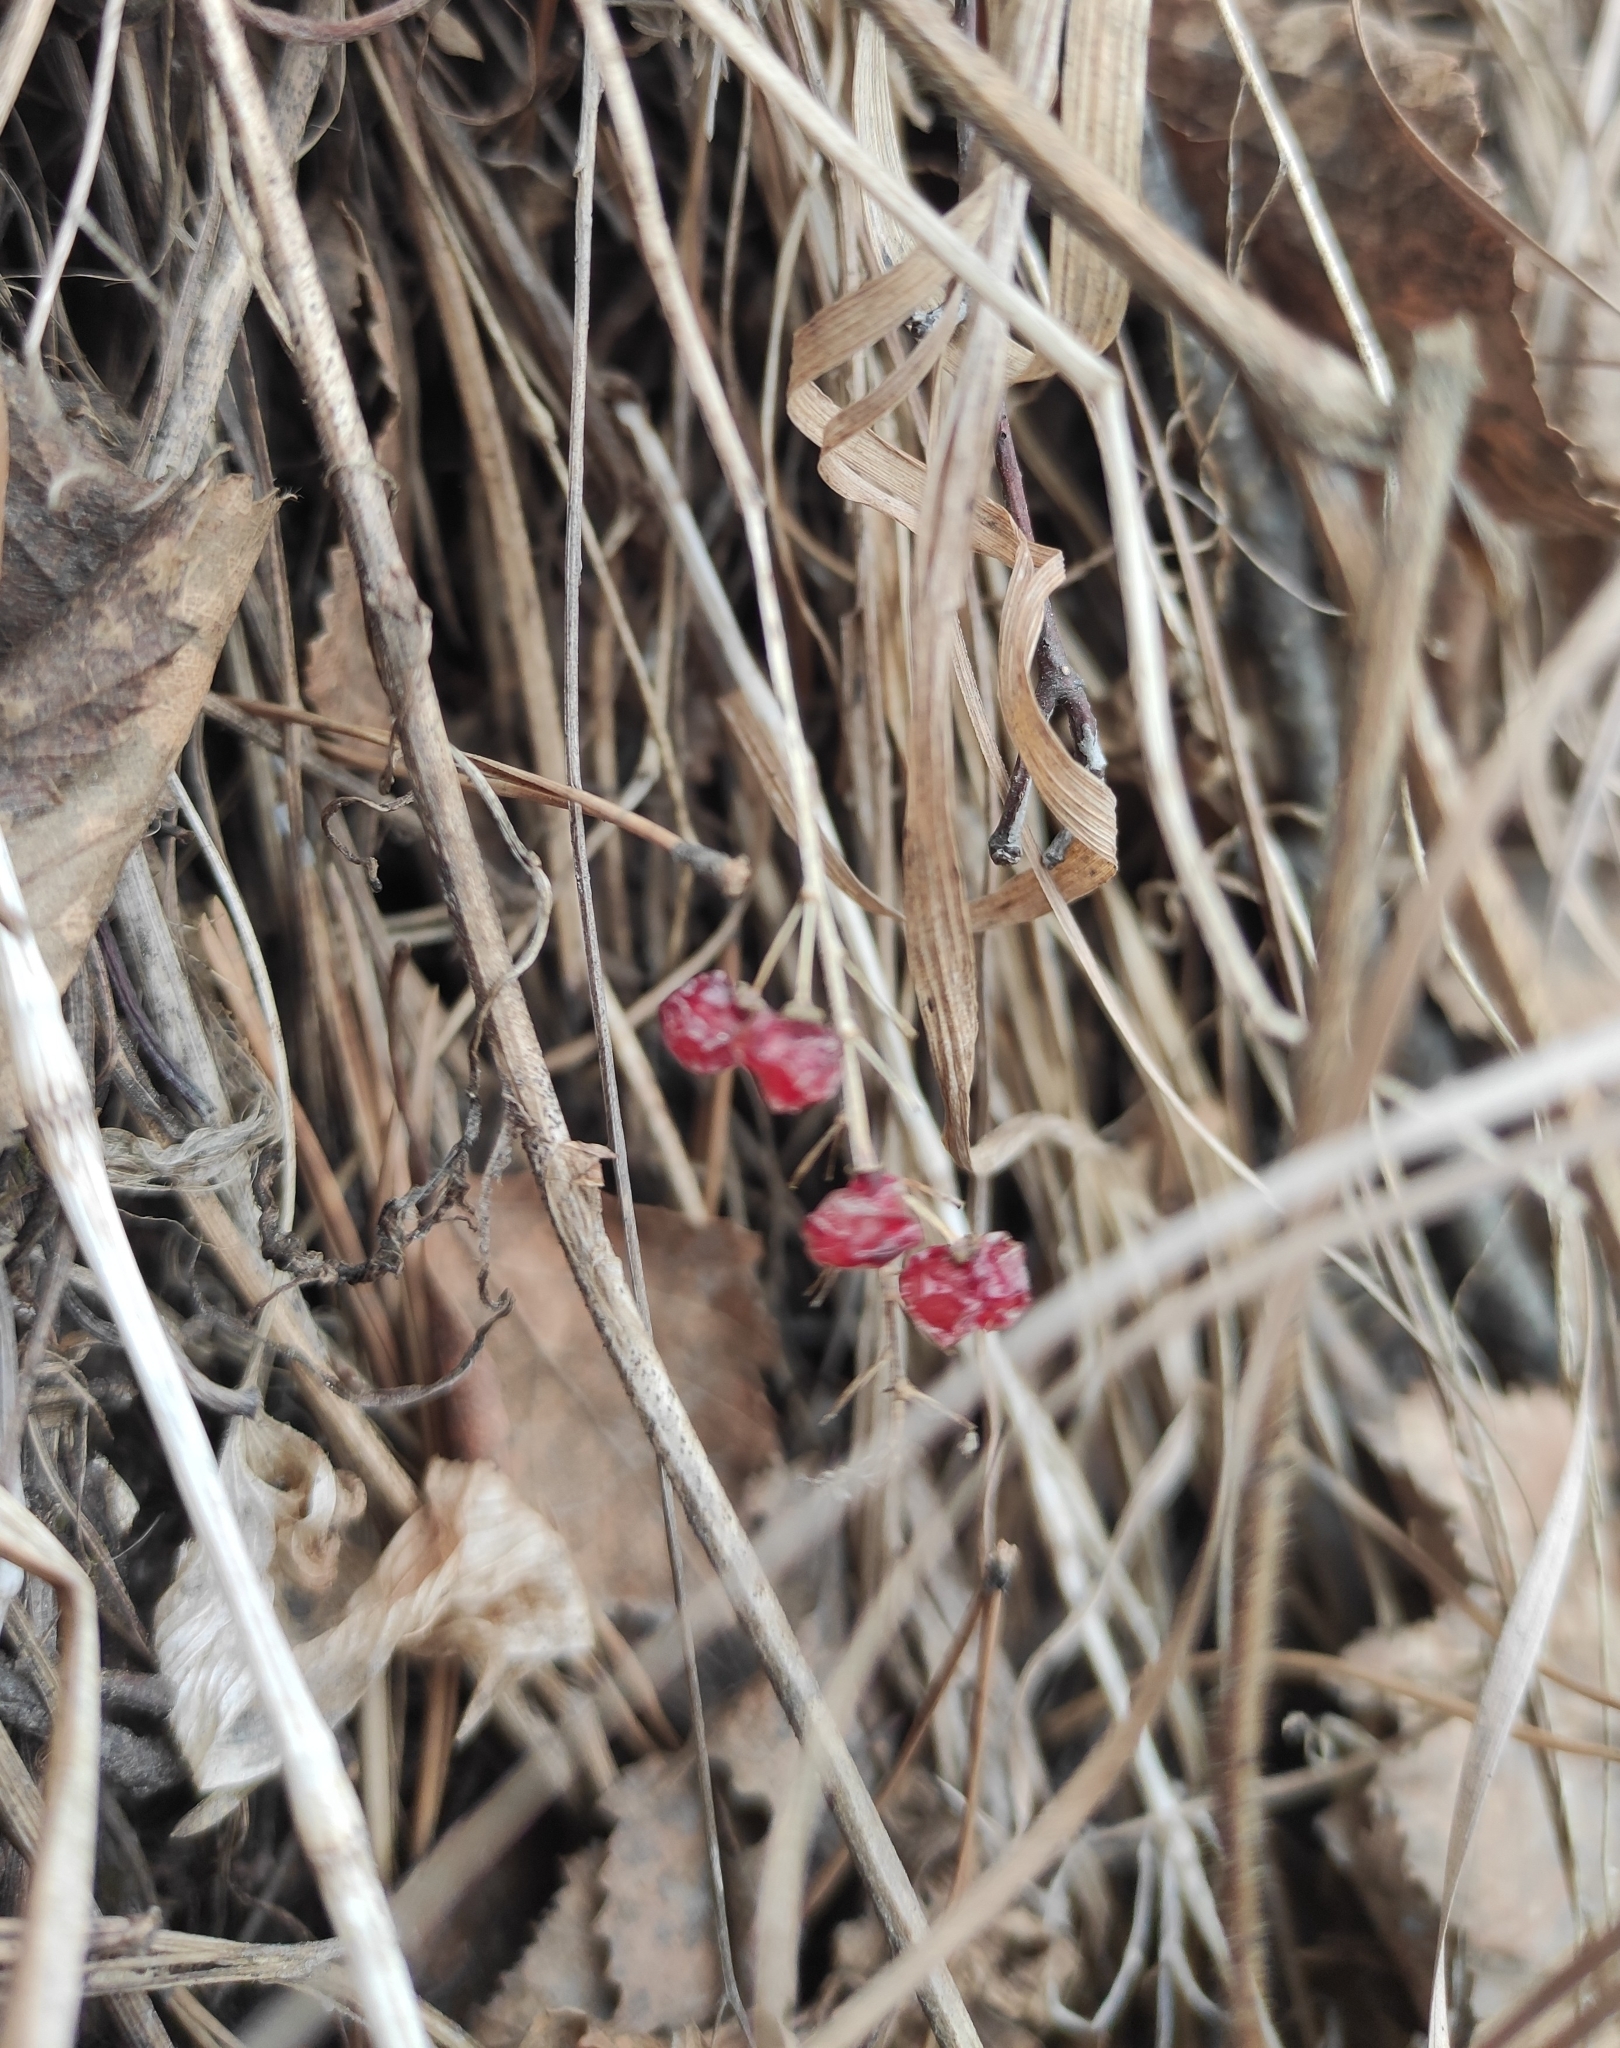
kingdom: Plantae
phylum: Tracheophyta
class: Liliopsida
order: Asparagales
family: Asparagaceae
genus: Maianthemum
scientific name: Maianthemum bifolium
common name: May lily
